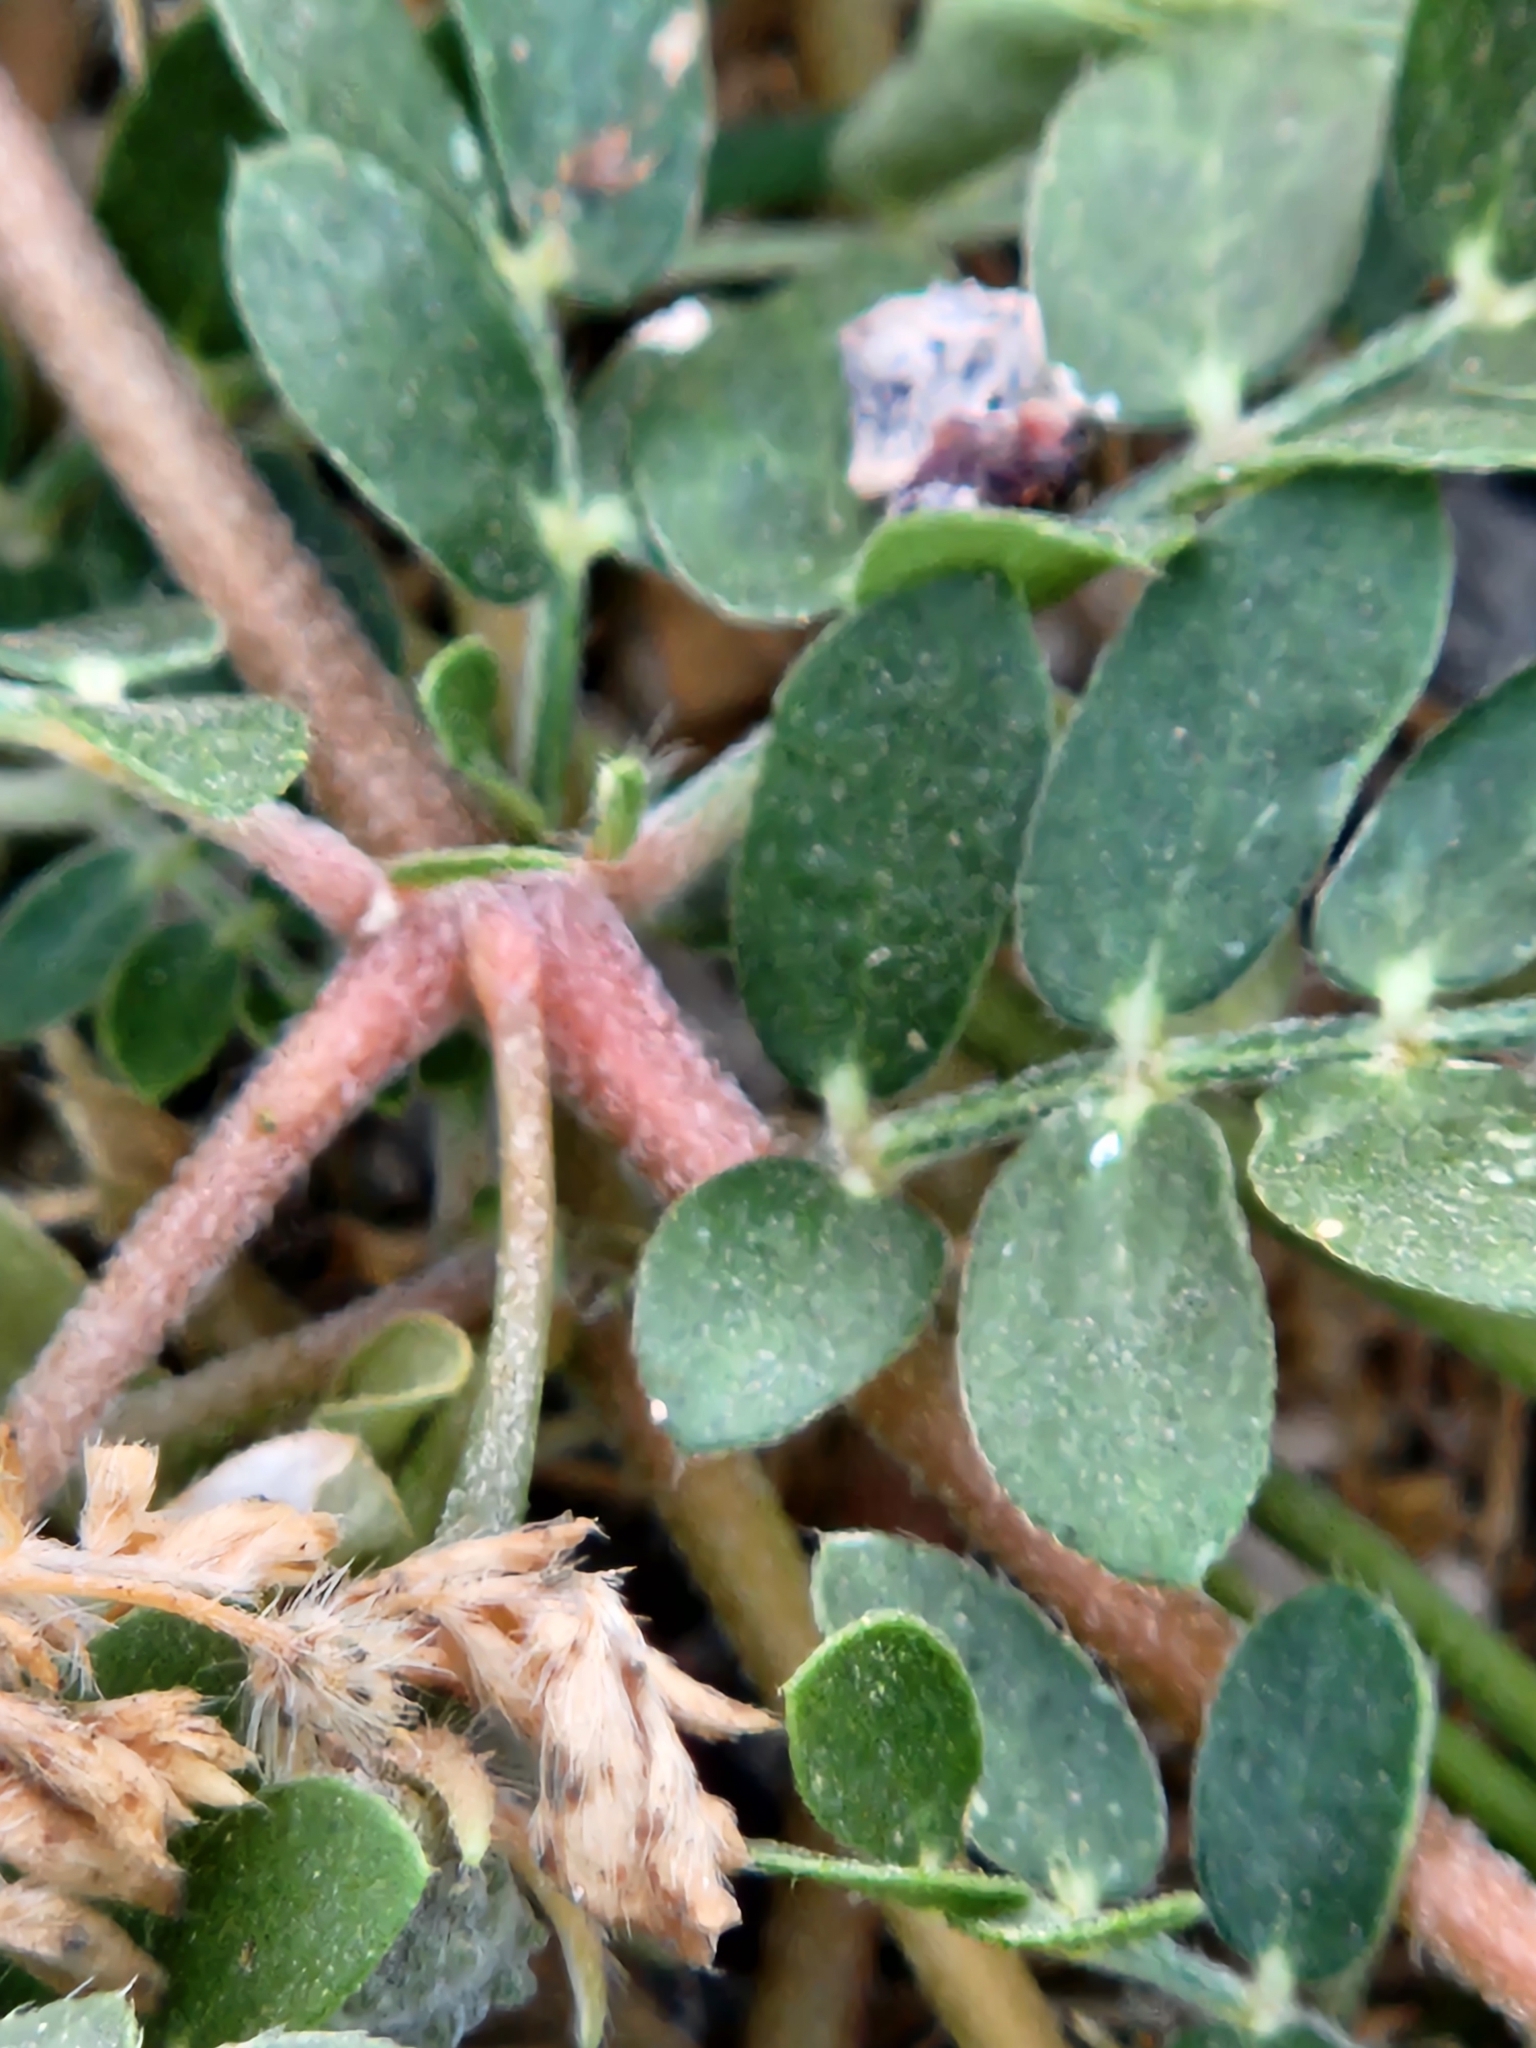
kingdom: Plantae
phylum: Tracheophyta
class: Magnoliopsida
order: Zygophyllales
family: Zygophyllaceae
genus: Kallstroemia
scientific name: Kallstroemia parviflora
